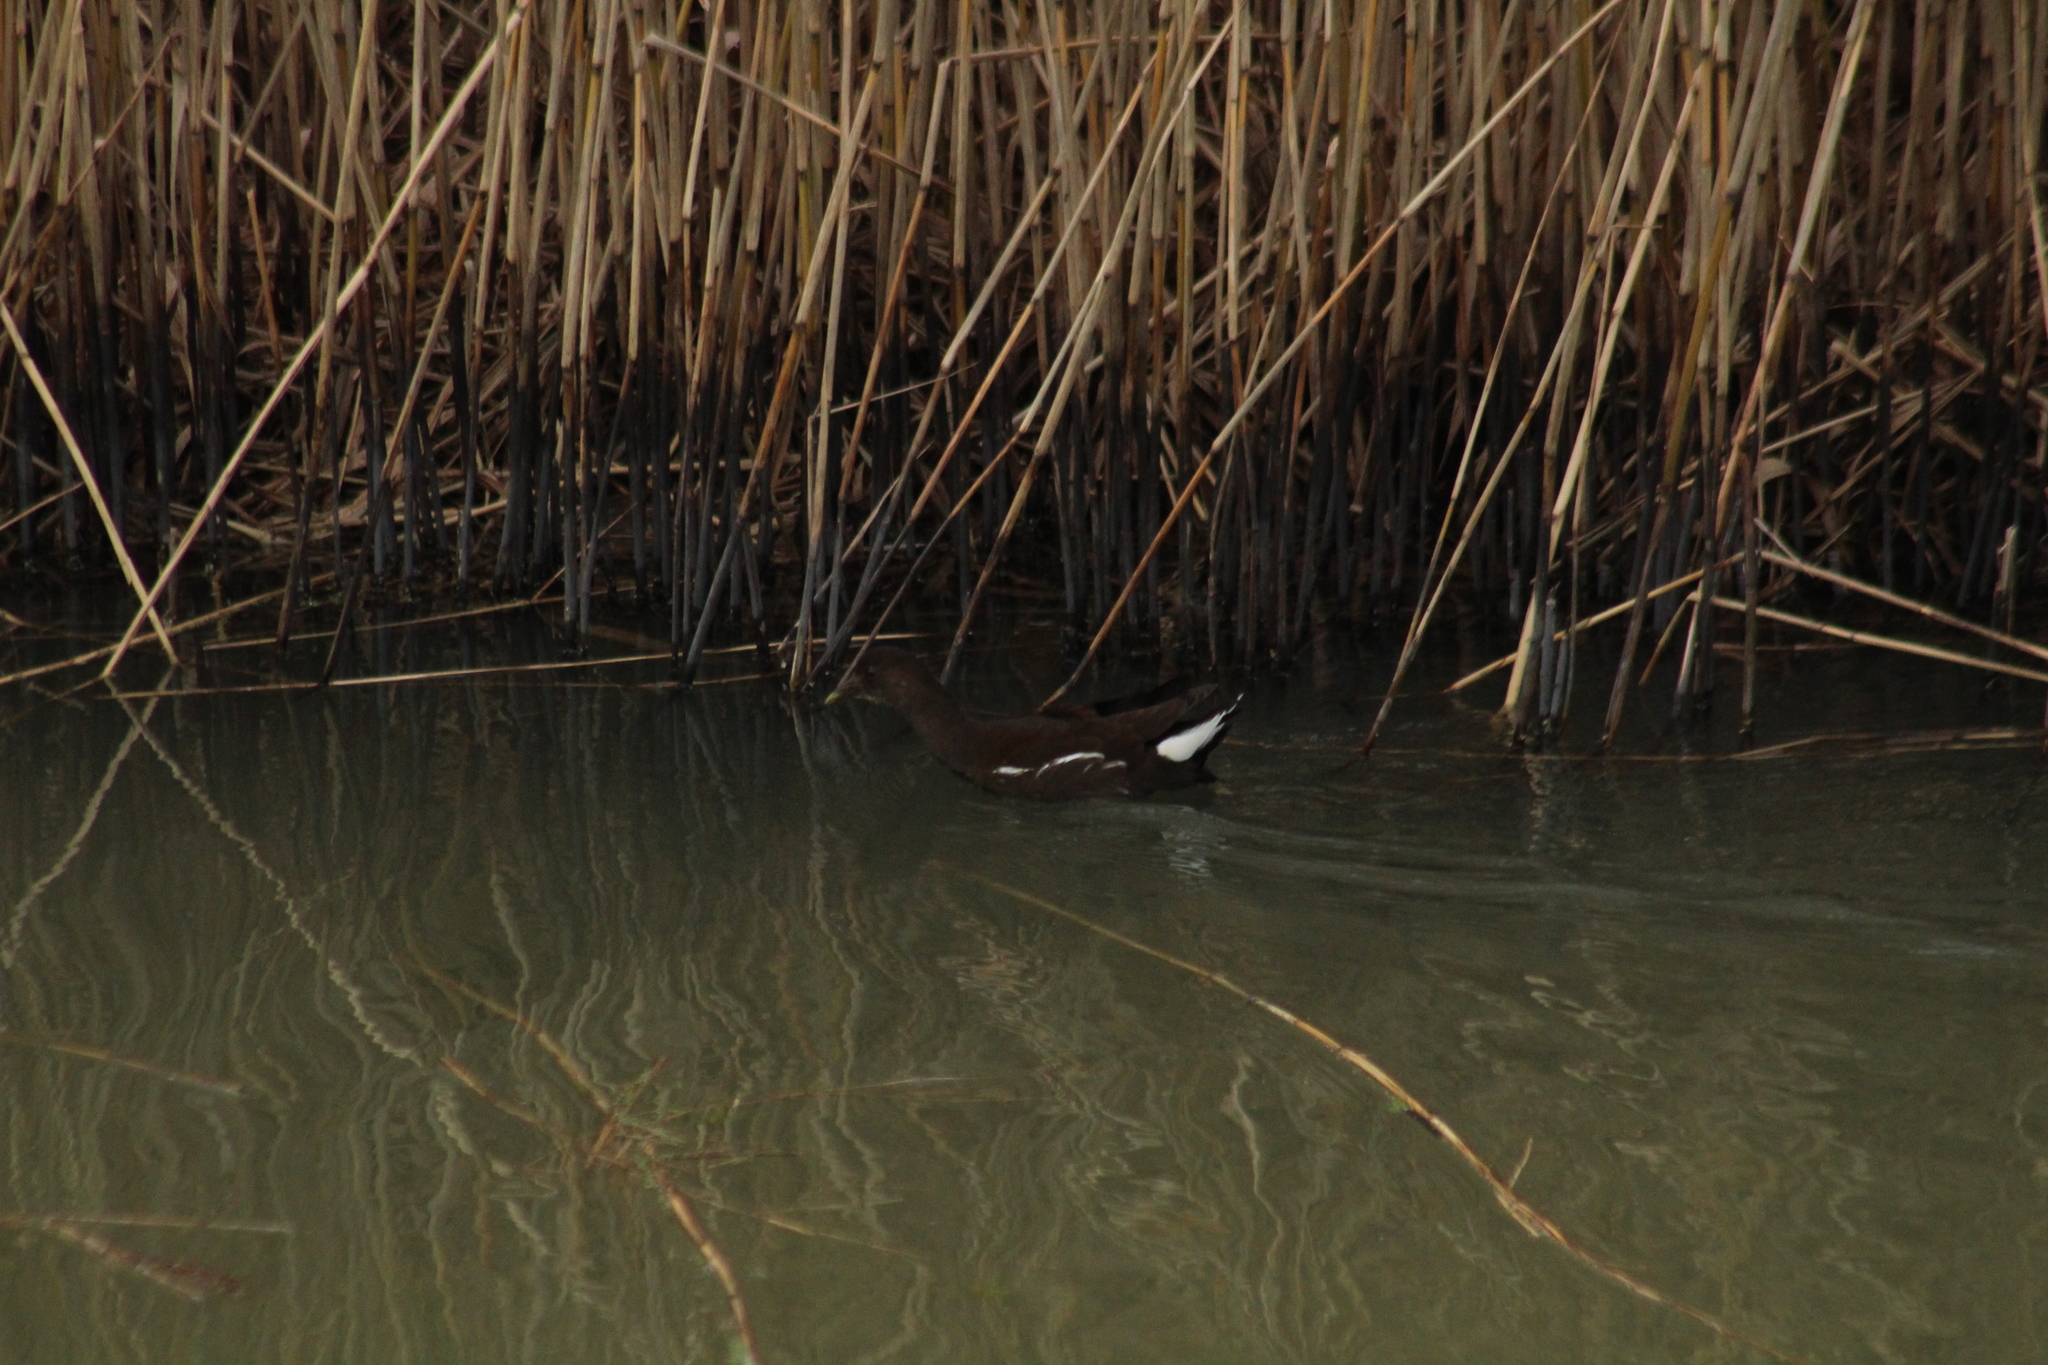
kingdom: Animalia
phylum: Chordata
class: Aves
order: Gruiformes
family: Rallidae
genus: Gallinula
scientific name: Gallinula chloropus
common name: Common moorhen
